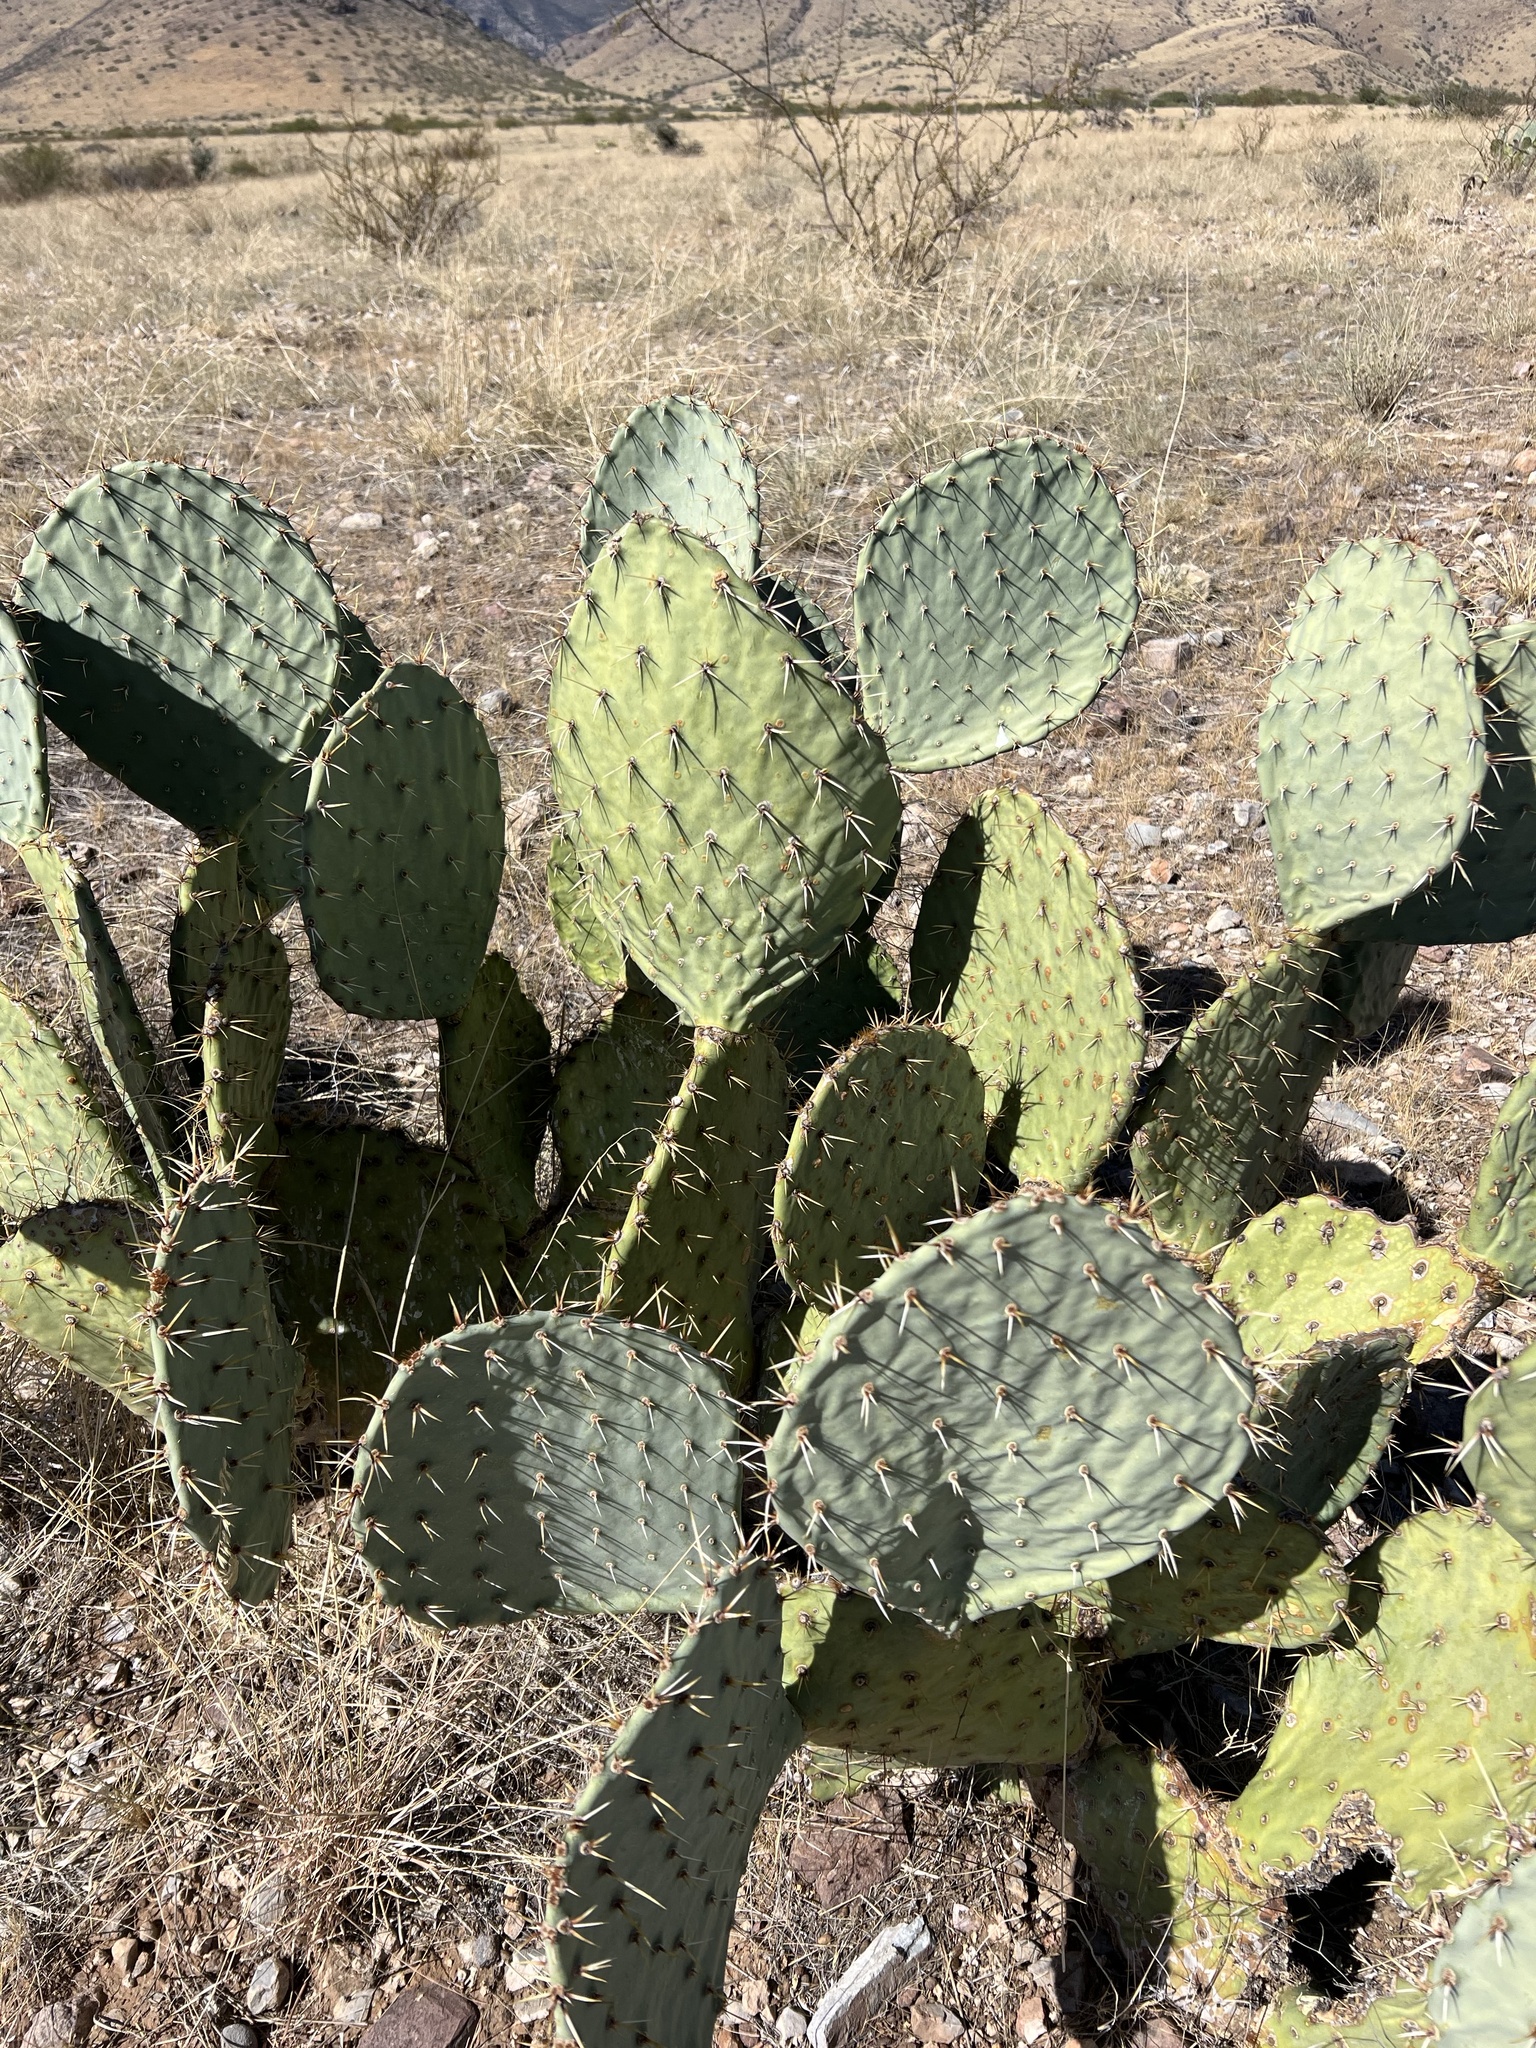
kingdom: Plantae
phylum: Tracheophyta
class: Magnoliopsida
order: Caryophyllales
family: Cactaceae
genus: Opuntia
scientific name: Opuntia engelmannii
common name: Cactus-apple
